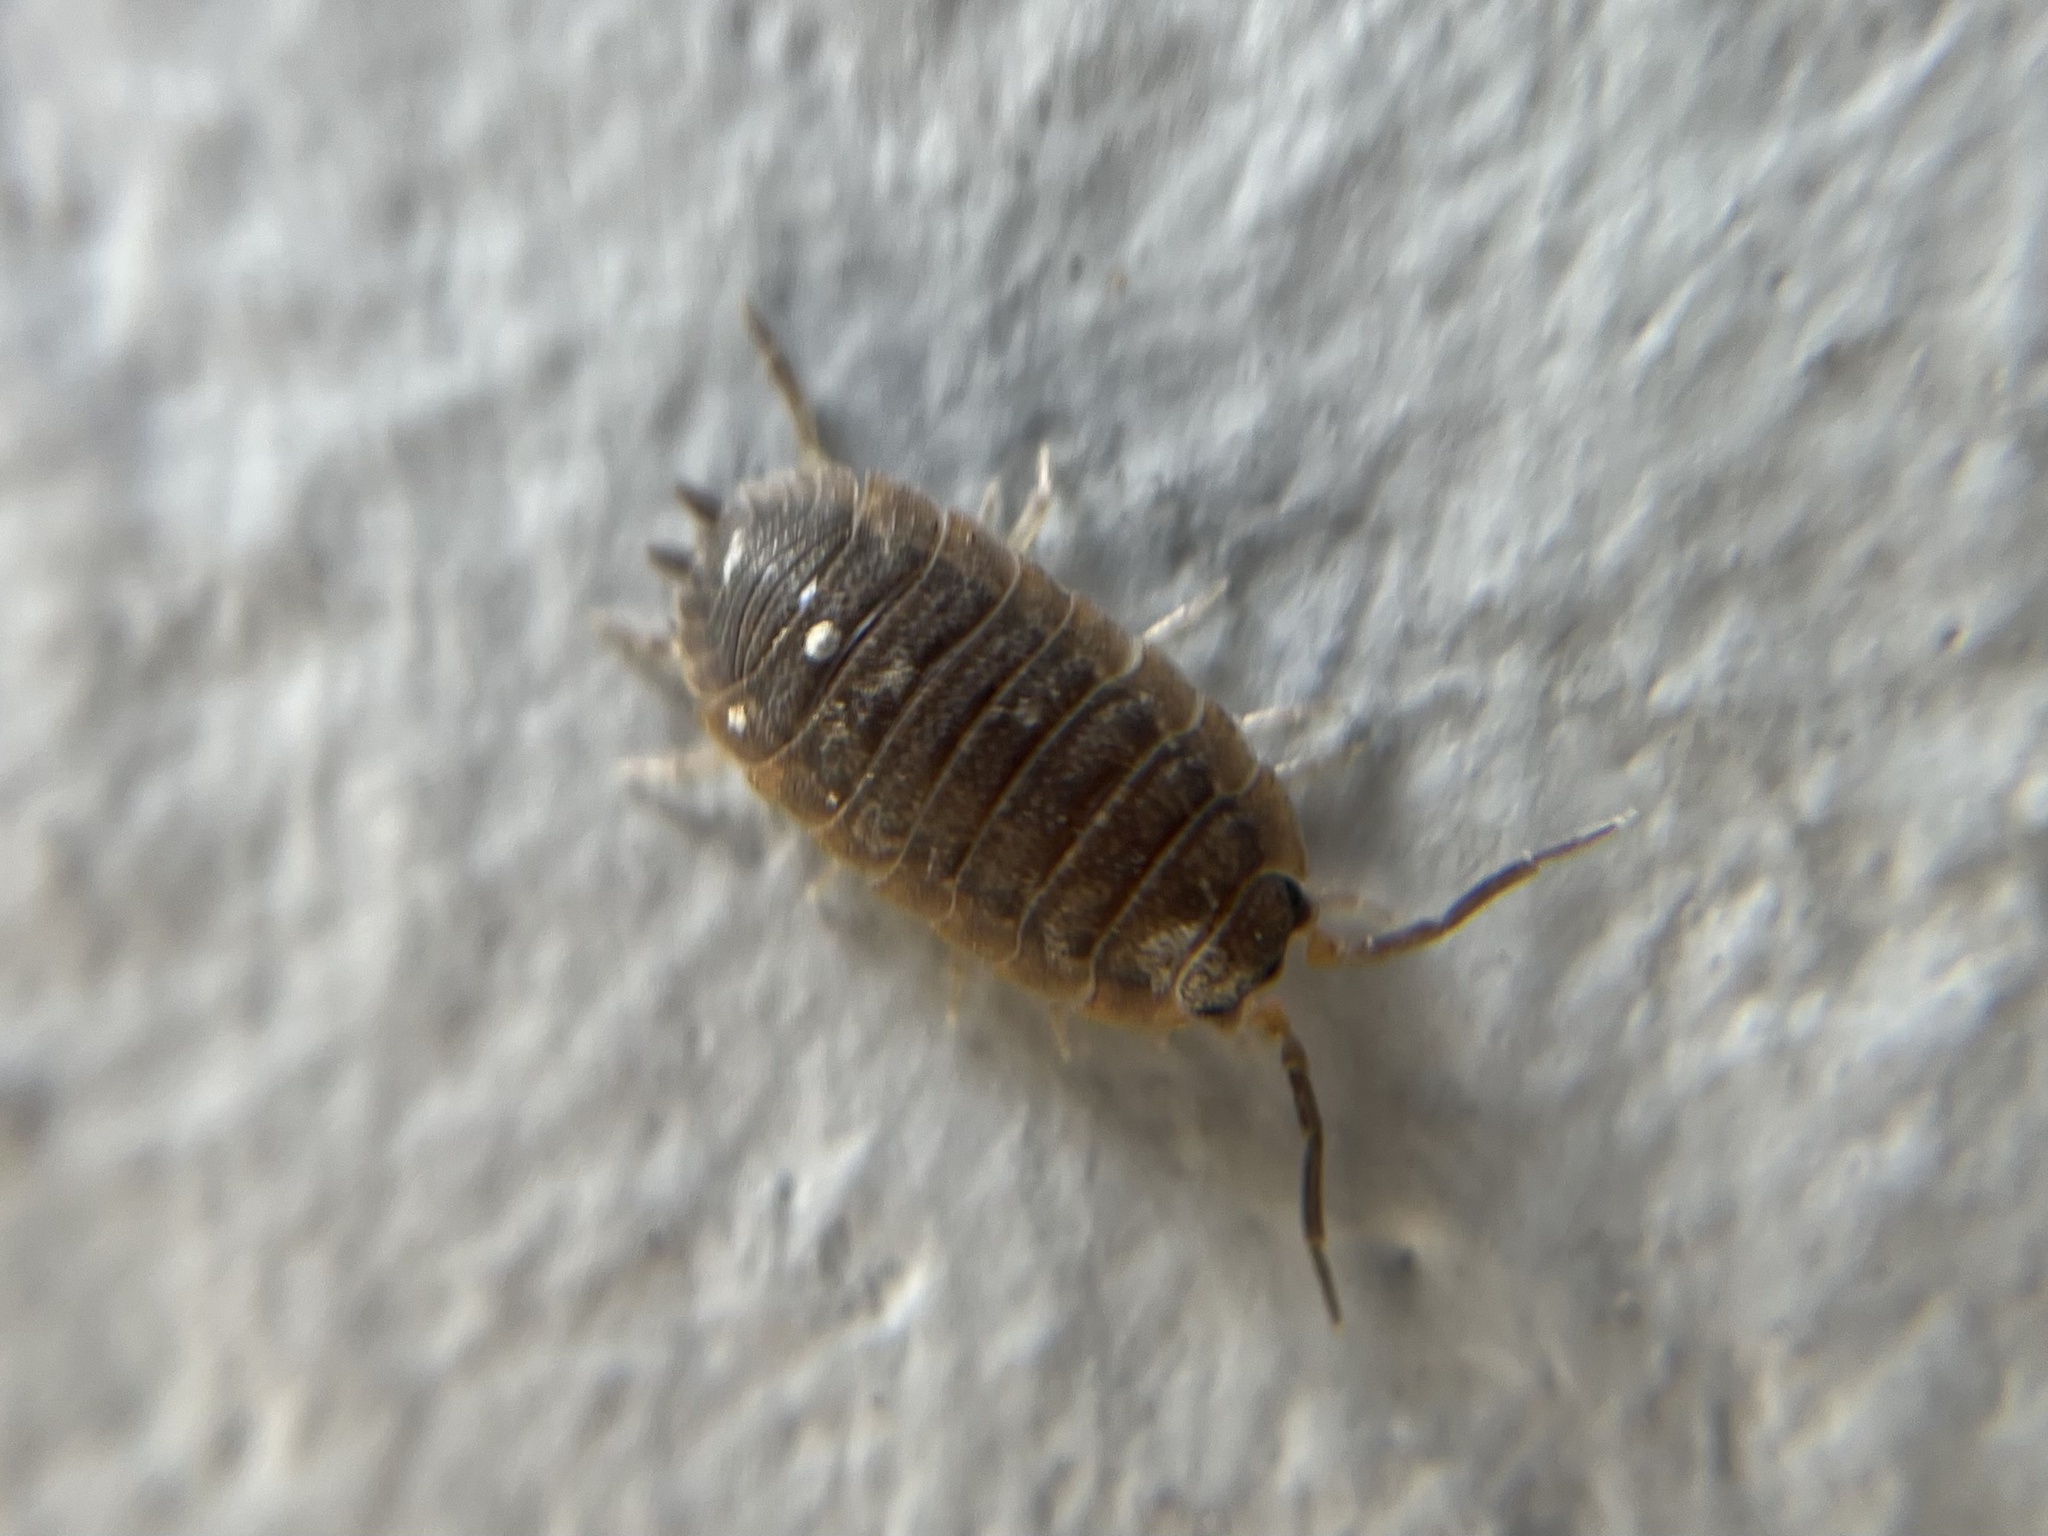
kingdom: Animalia
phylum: Arthropoda
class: Malacostraca
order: Isopoda
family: Porcellionidae
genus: Porcellio
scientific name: Porcellio scaber
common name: Common rough woodlouse
